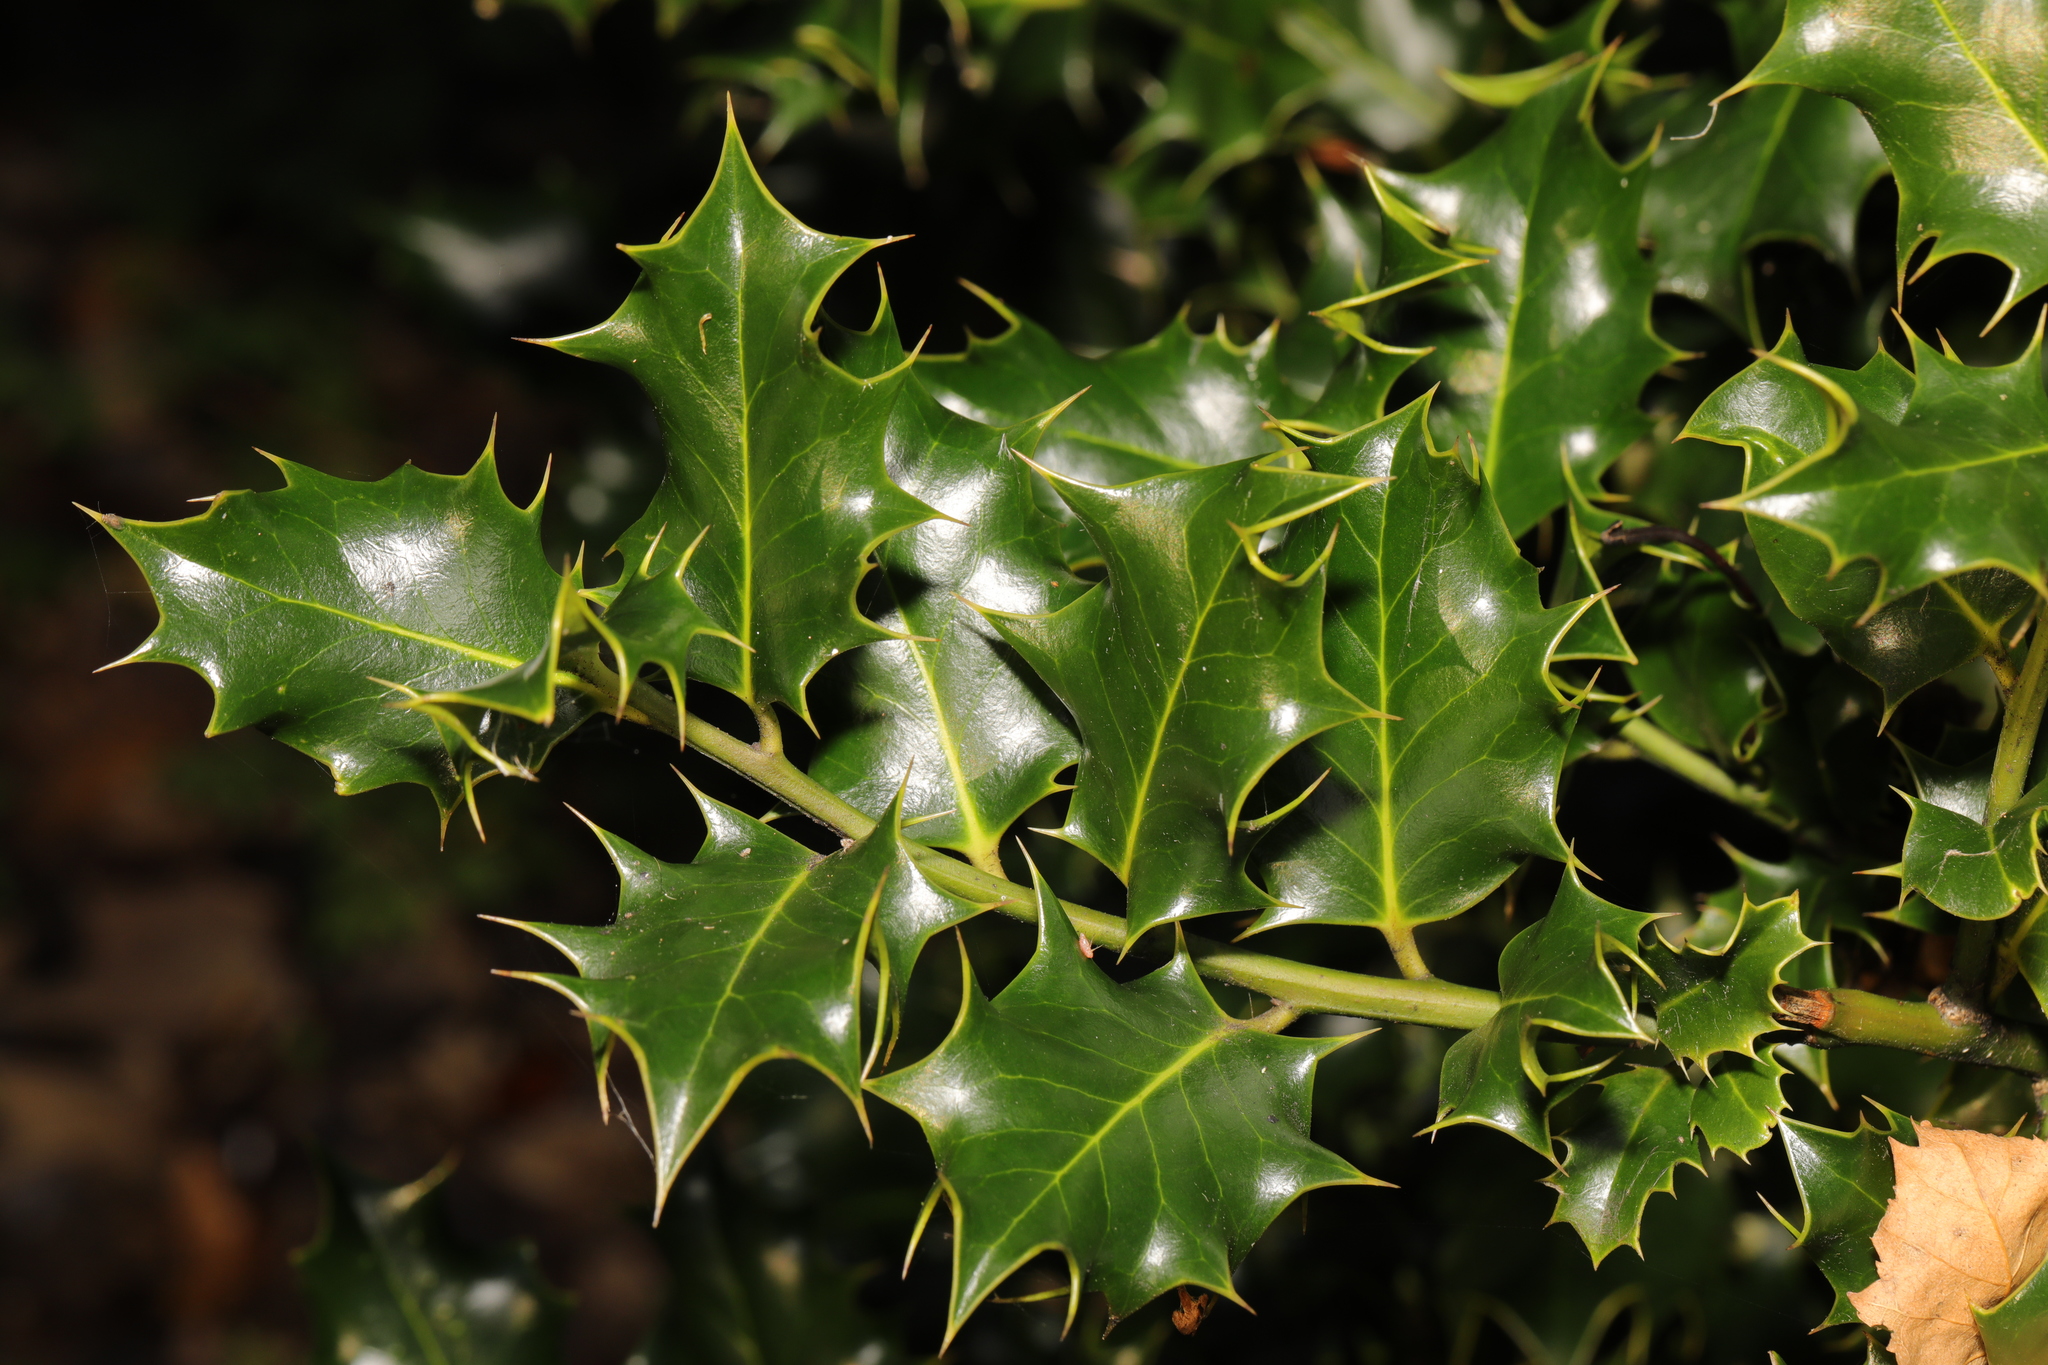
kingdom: Plantae
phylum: Tracheophyta
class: Magnoliopsida
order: Aquifoliales
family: Aquifoliaceae
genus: Ilex
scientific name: Ilex aquifolium
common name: English holly
